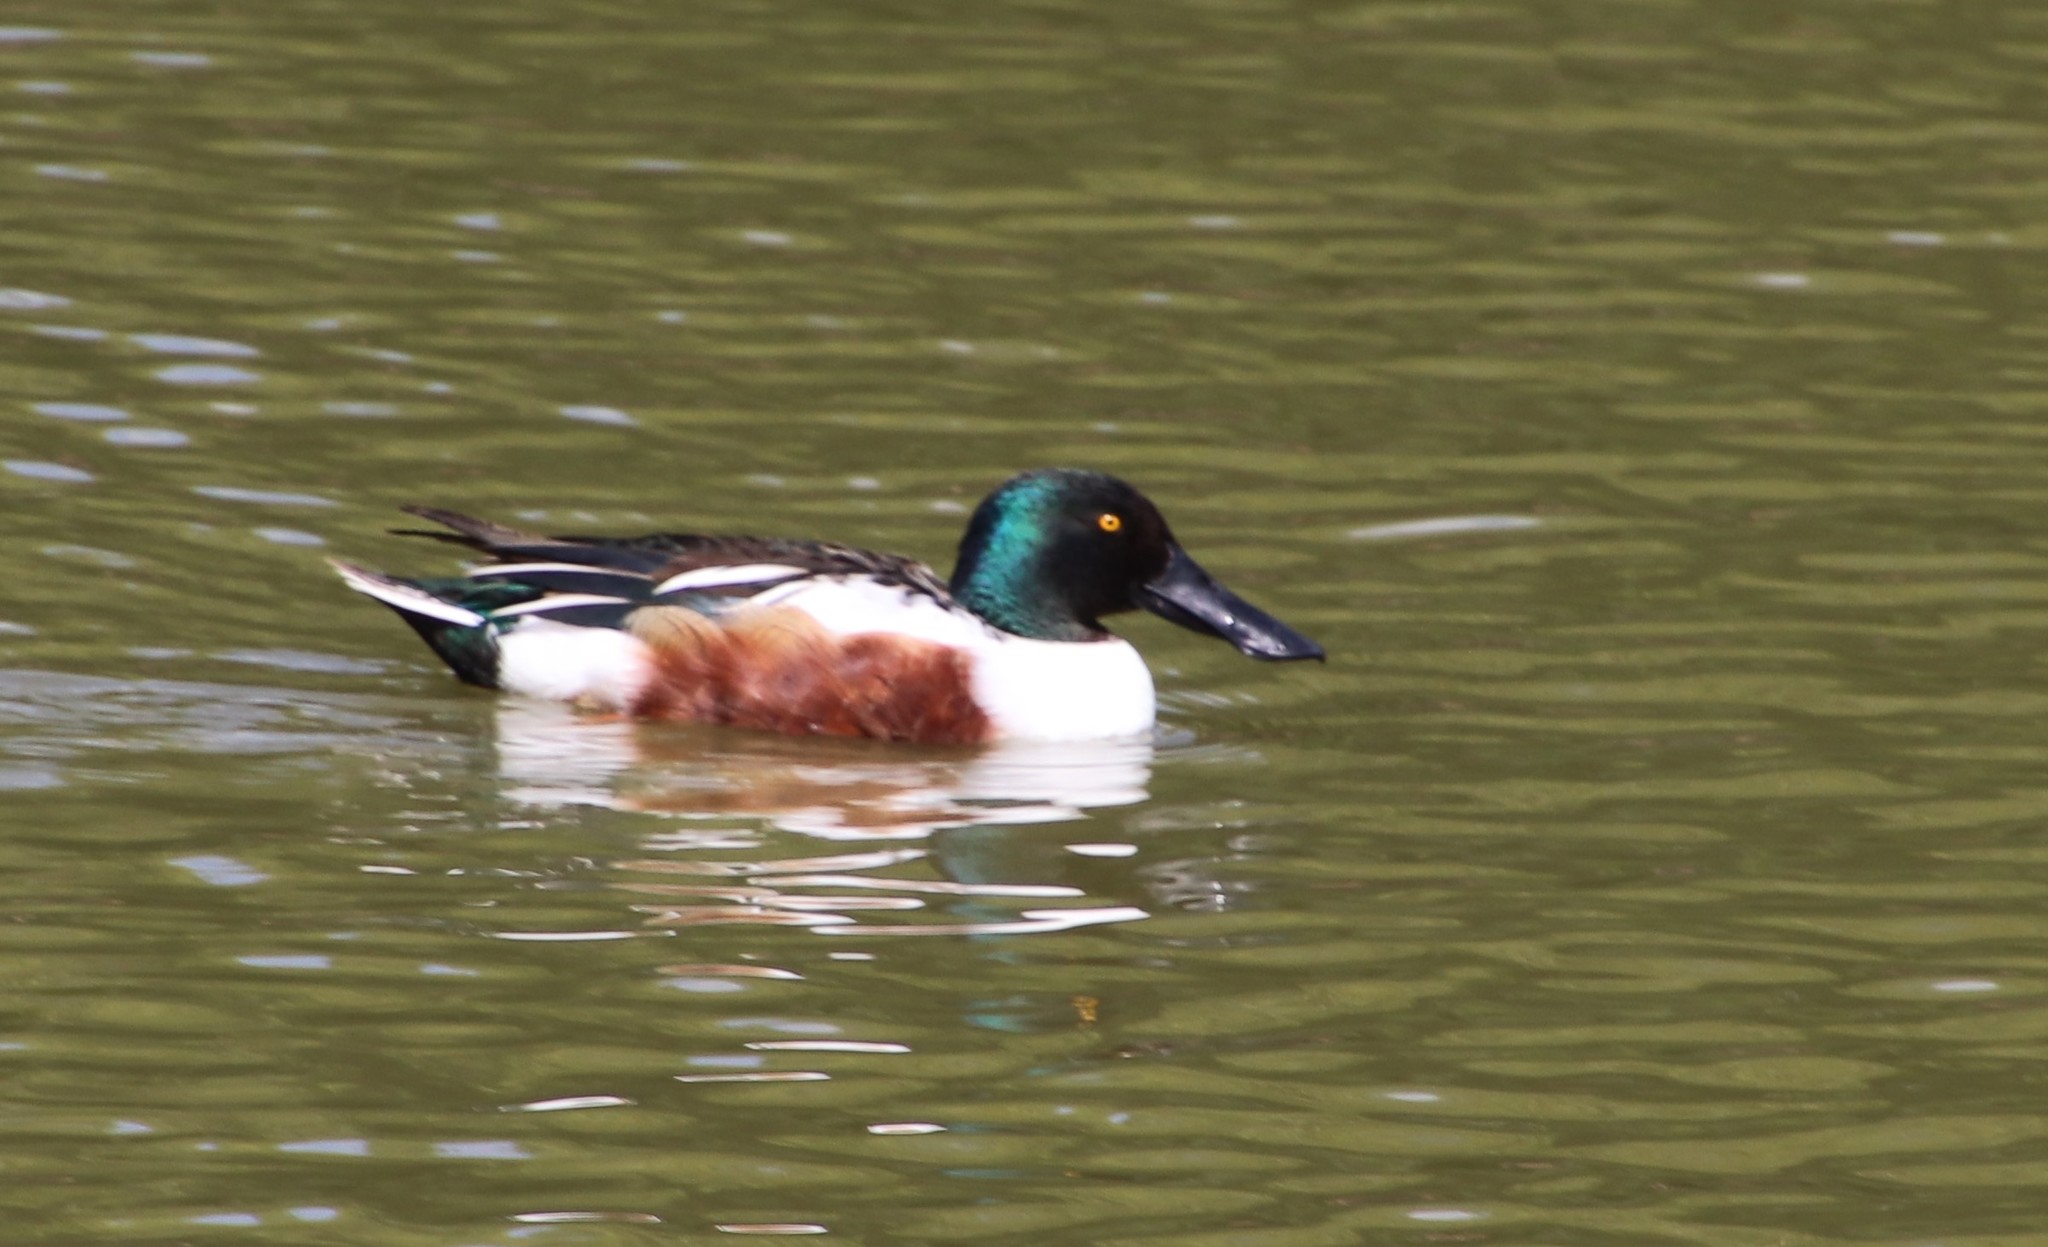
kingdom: Animalia
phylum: Chordata
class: Aves
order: Anseriformes
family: Anatidae
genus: Spatula
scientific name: Spatula clypeata
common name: Northern shoveler
